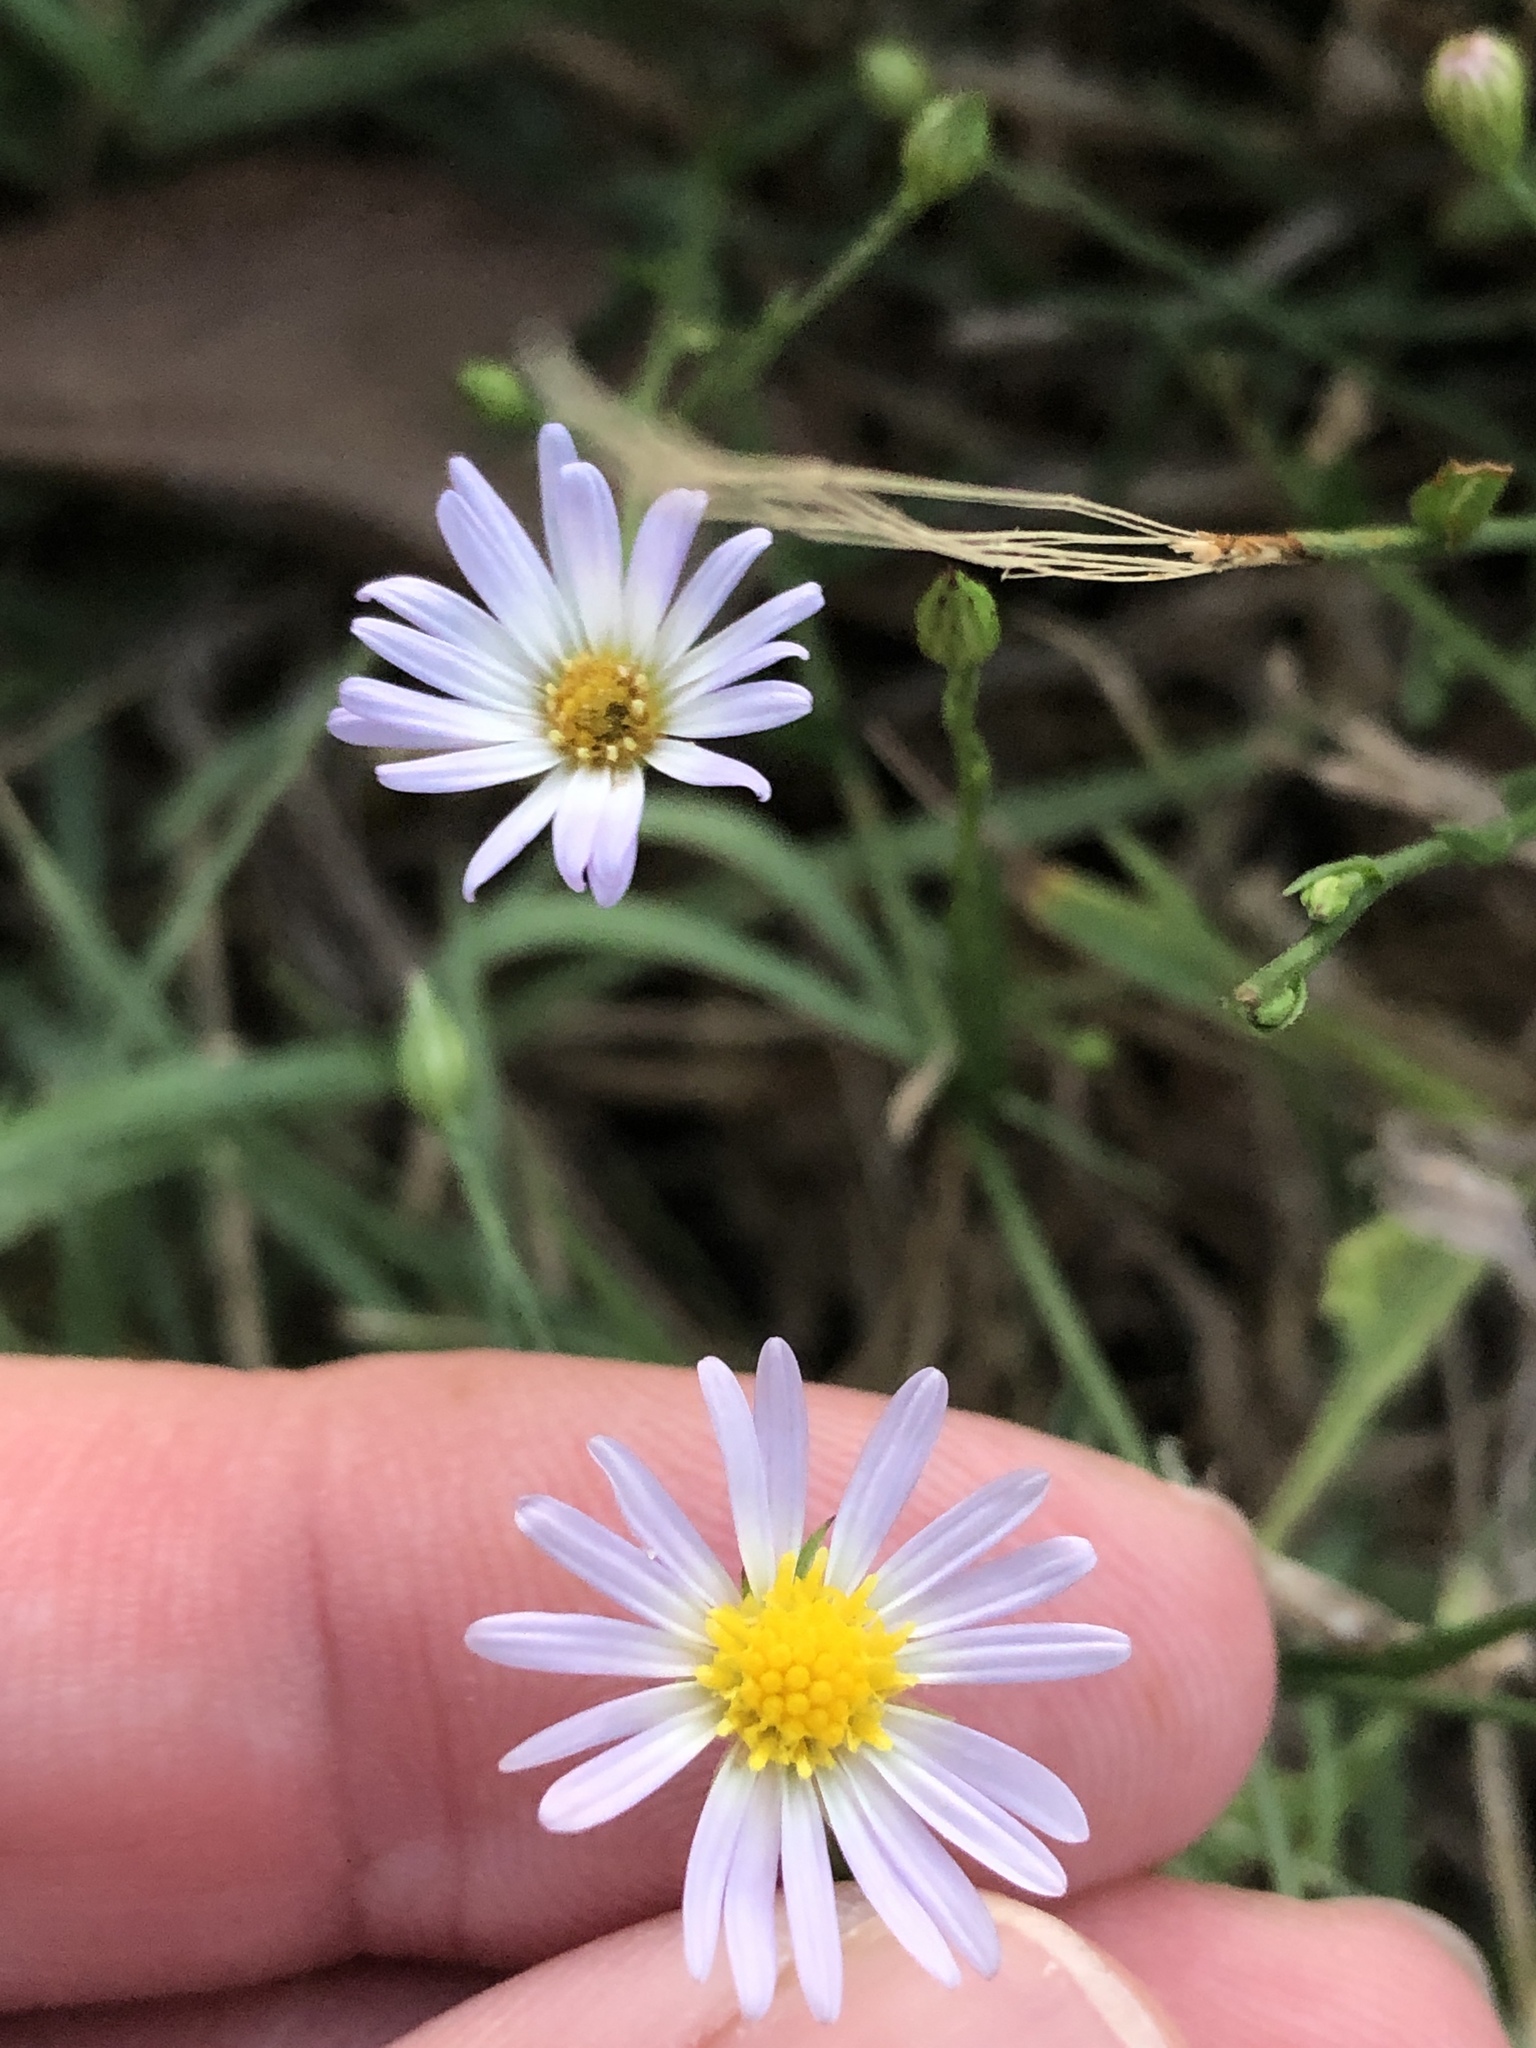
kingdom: Plantae
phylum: Tracheophyta
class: Magnoliopsida
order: Asterales
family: Asteraceae
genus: Symphyotrichum
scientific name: Symphyotrichum divaricatum
